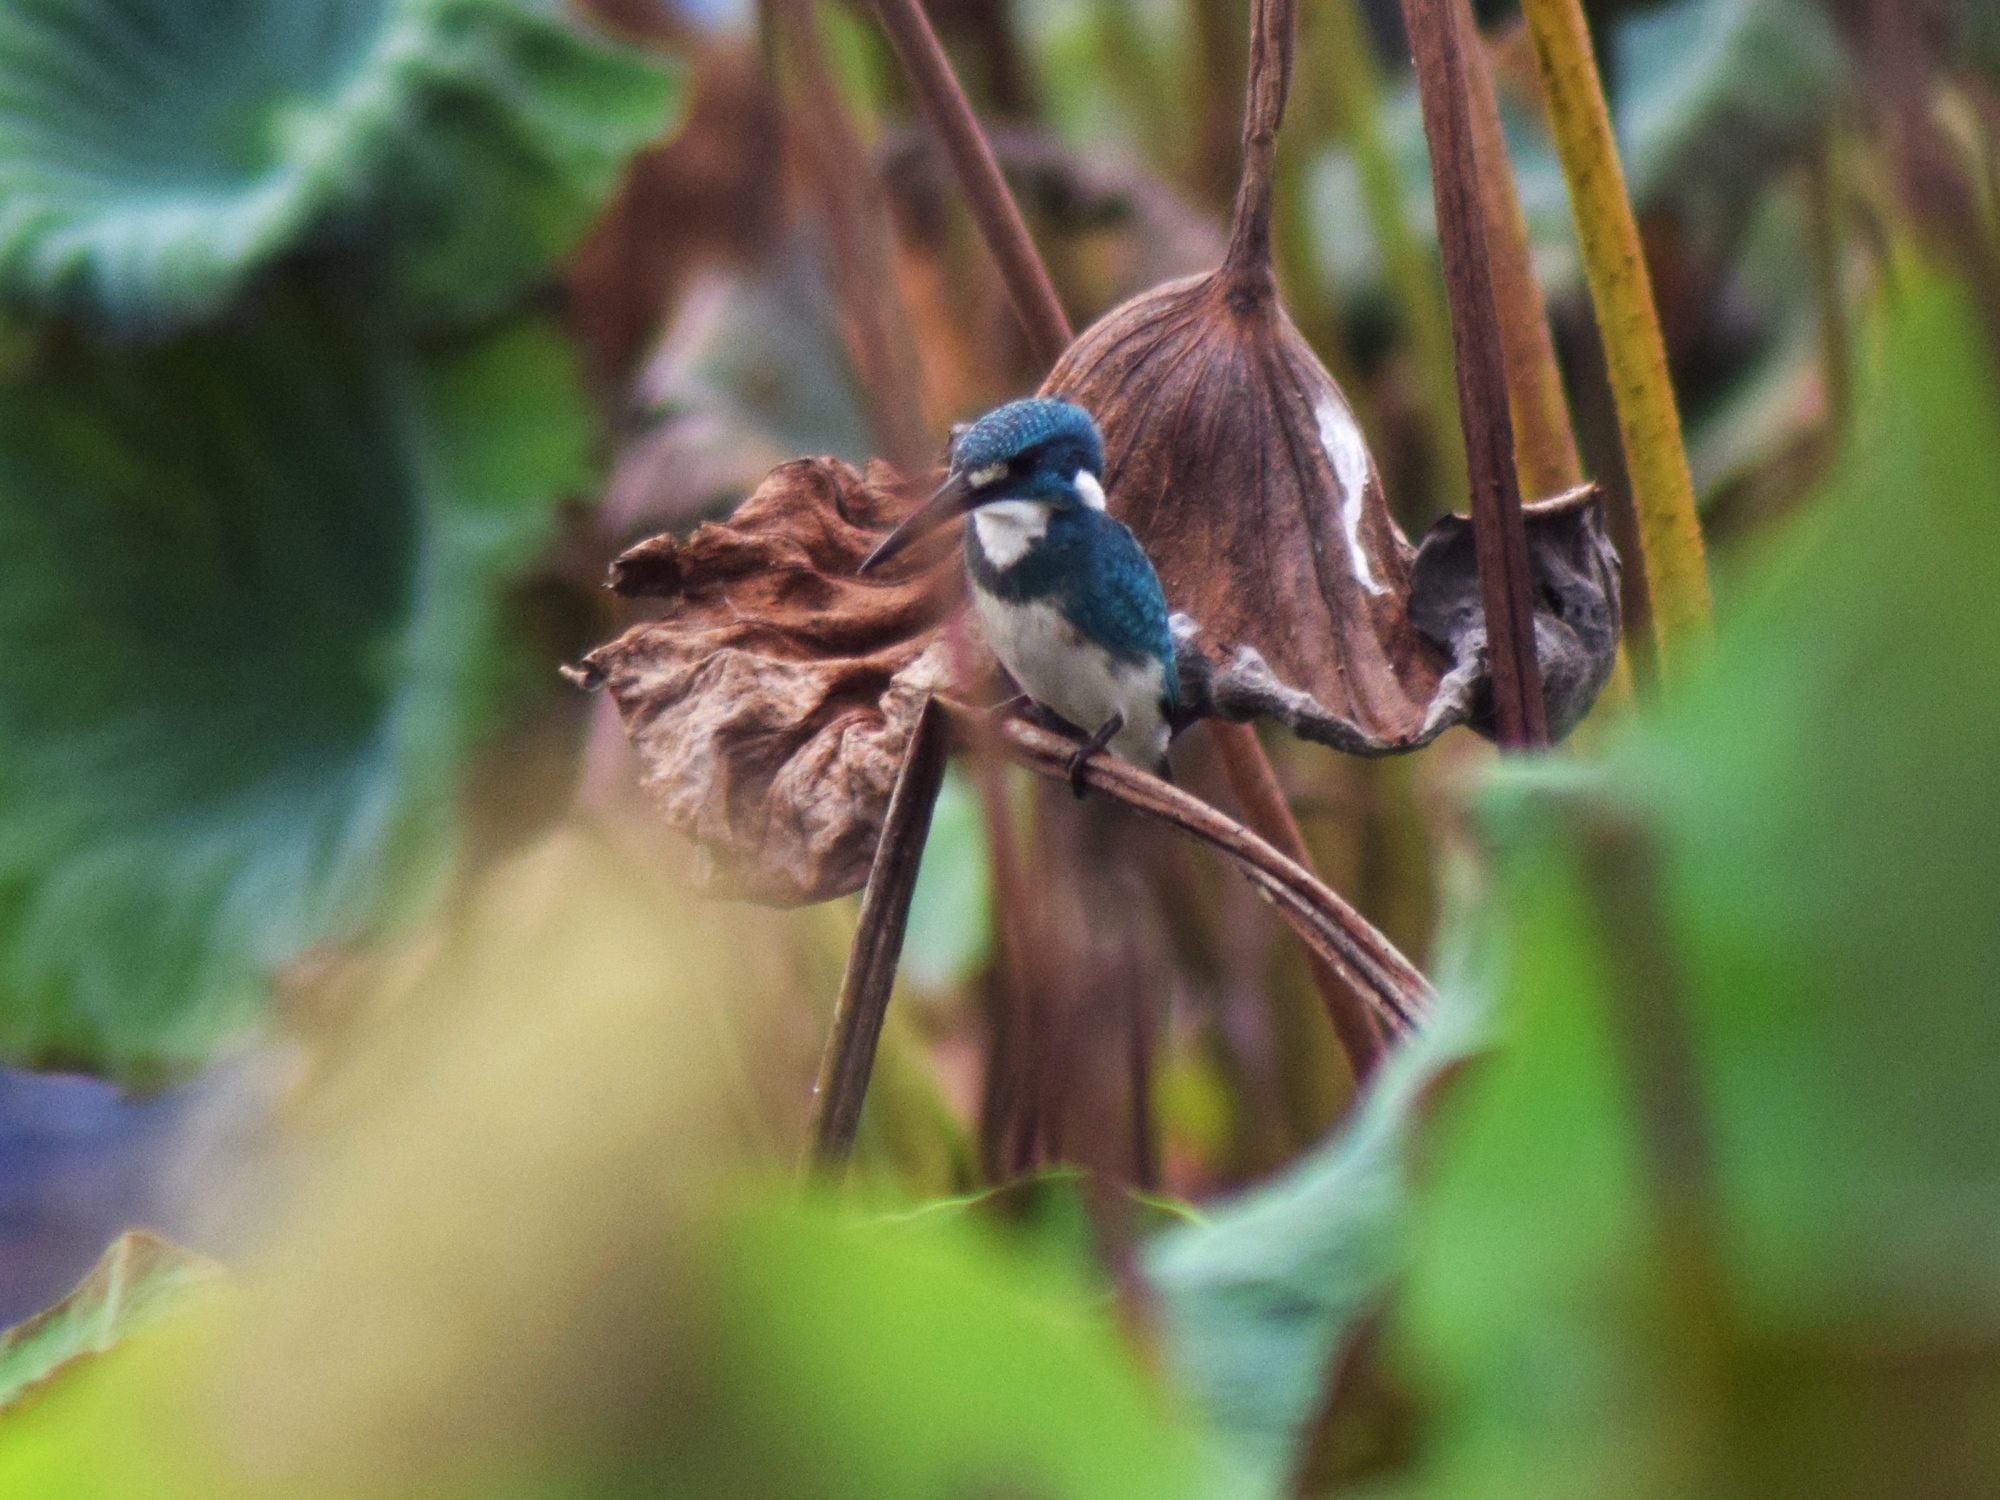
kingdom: Animalia
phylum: Chordata
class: Aves
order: Coraciiformes
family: Alcedinidae
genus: Alcedo
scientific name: Alcedo coerulescens
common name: Cerulean kingfisher
